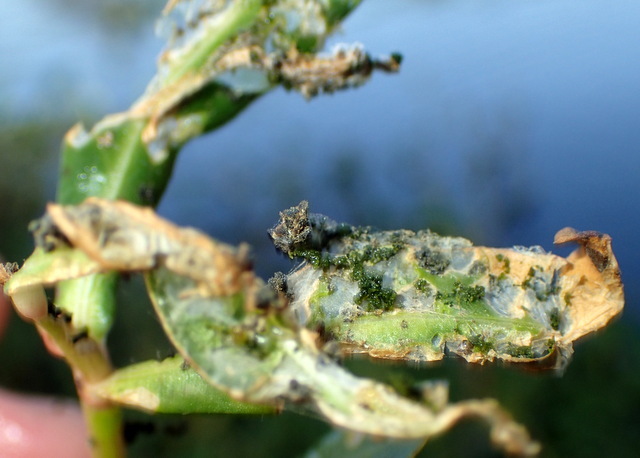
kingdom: Animalia
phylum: Arthropoda
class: Insecta
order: Coleoptera
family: Chrysomelidae
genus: Agasicles
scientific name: Agasicles hygrophila
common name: Alligatorweed flea beetle
